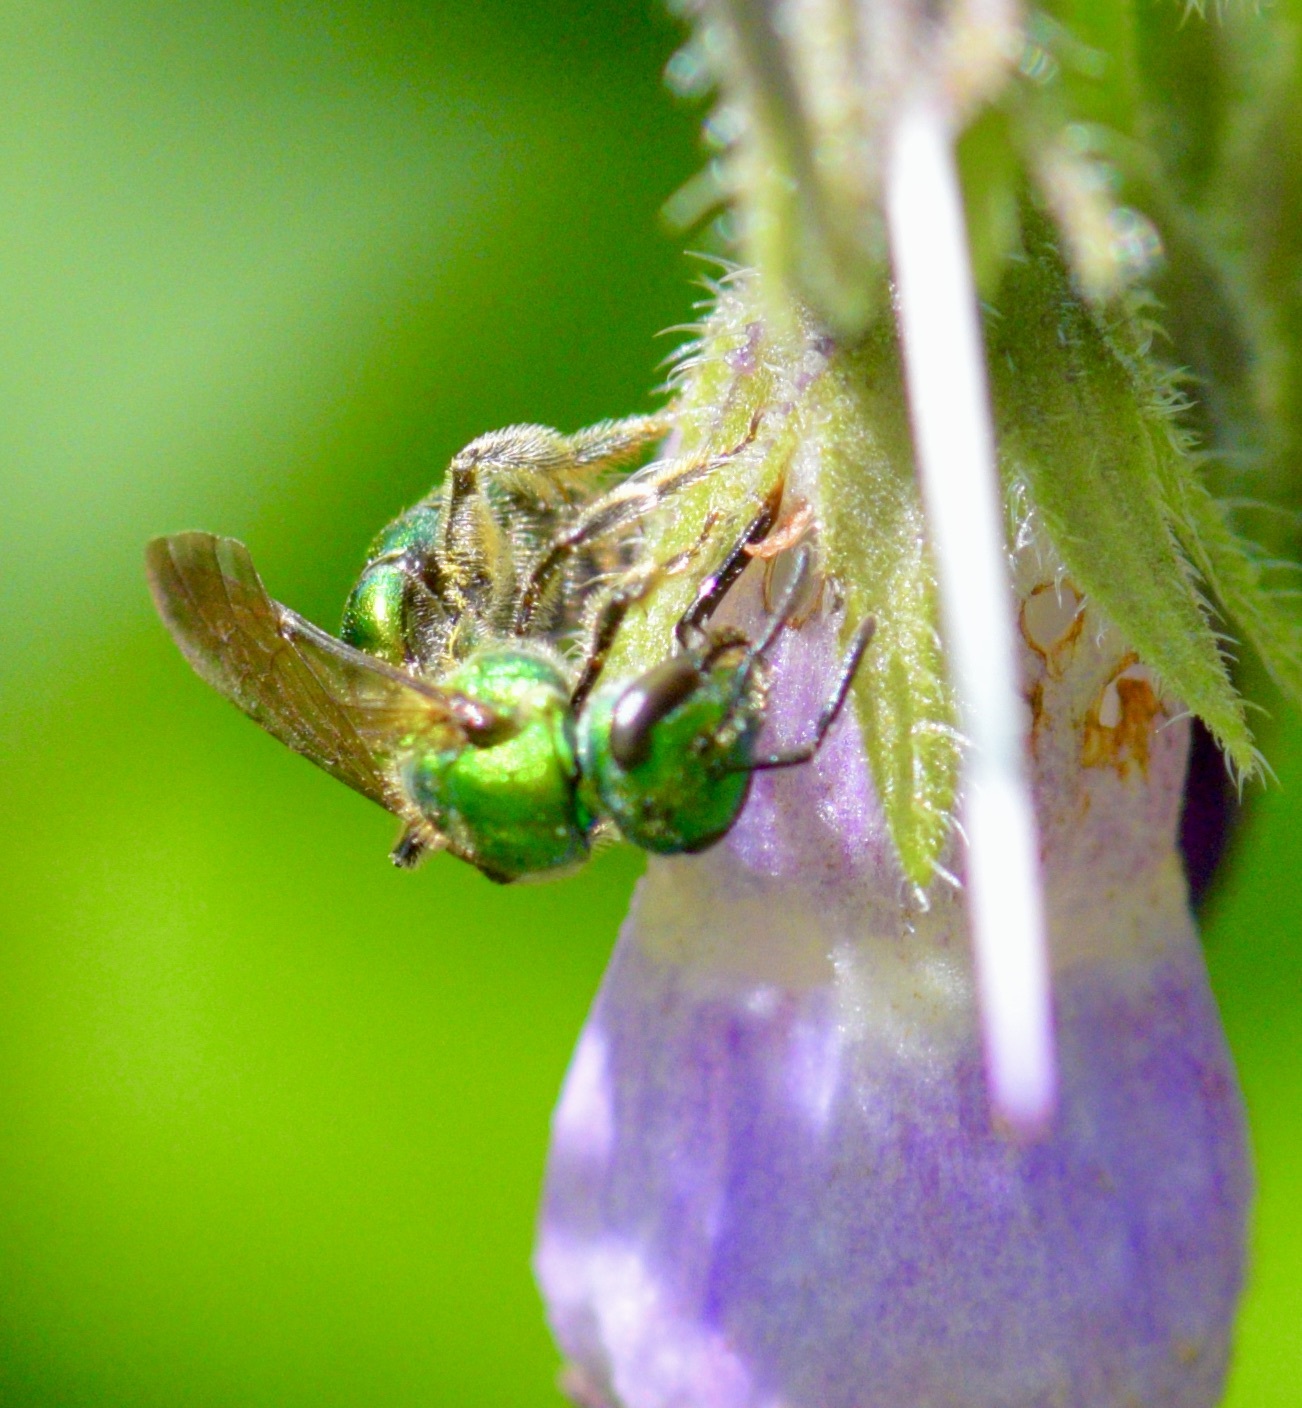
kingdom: Animalia
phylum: Arthropoda
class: Insecta
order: Hymenoptera
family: Halictidae
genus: Augochlora
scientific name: Augochlora pura
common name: Pure green sweat bee
